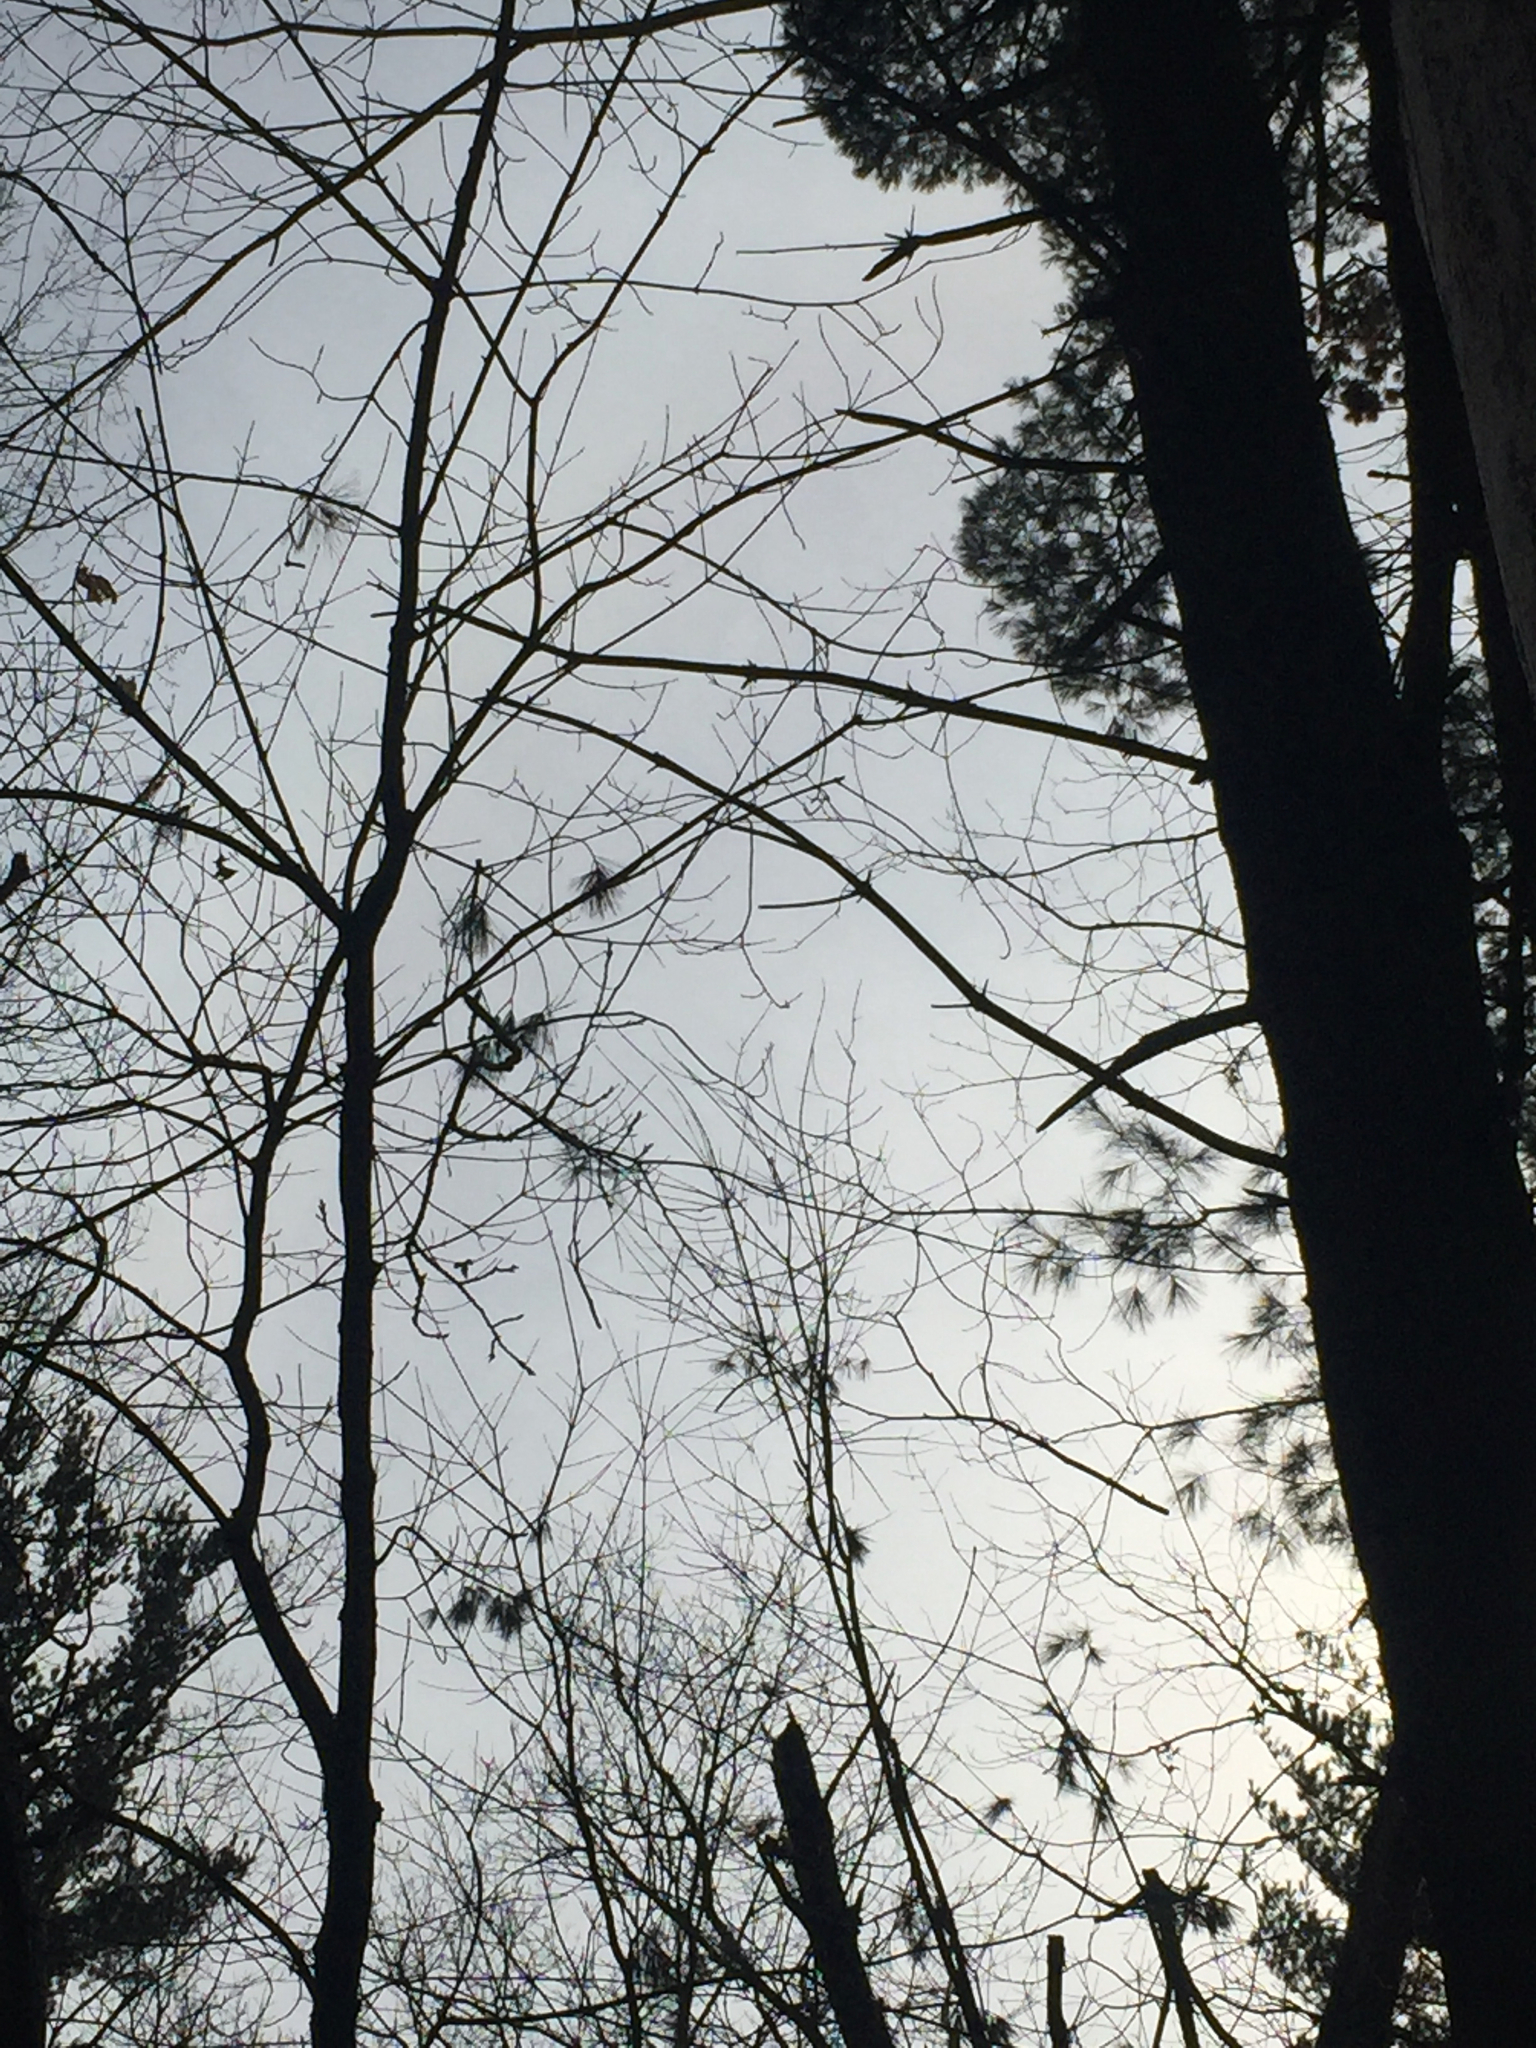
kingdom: Animalia
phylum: Chordata
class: Aves
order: Accipitriformes
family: Accipitridae
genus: Haliaeetus
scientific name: Haliaeetus leucocephalus
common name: Bald eagle
